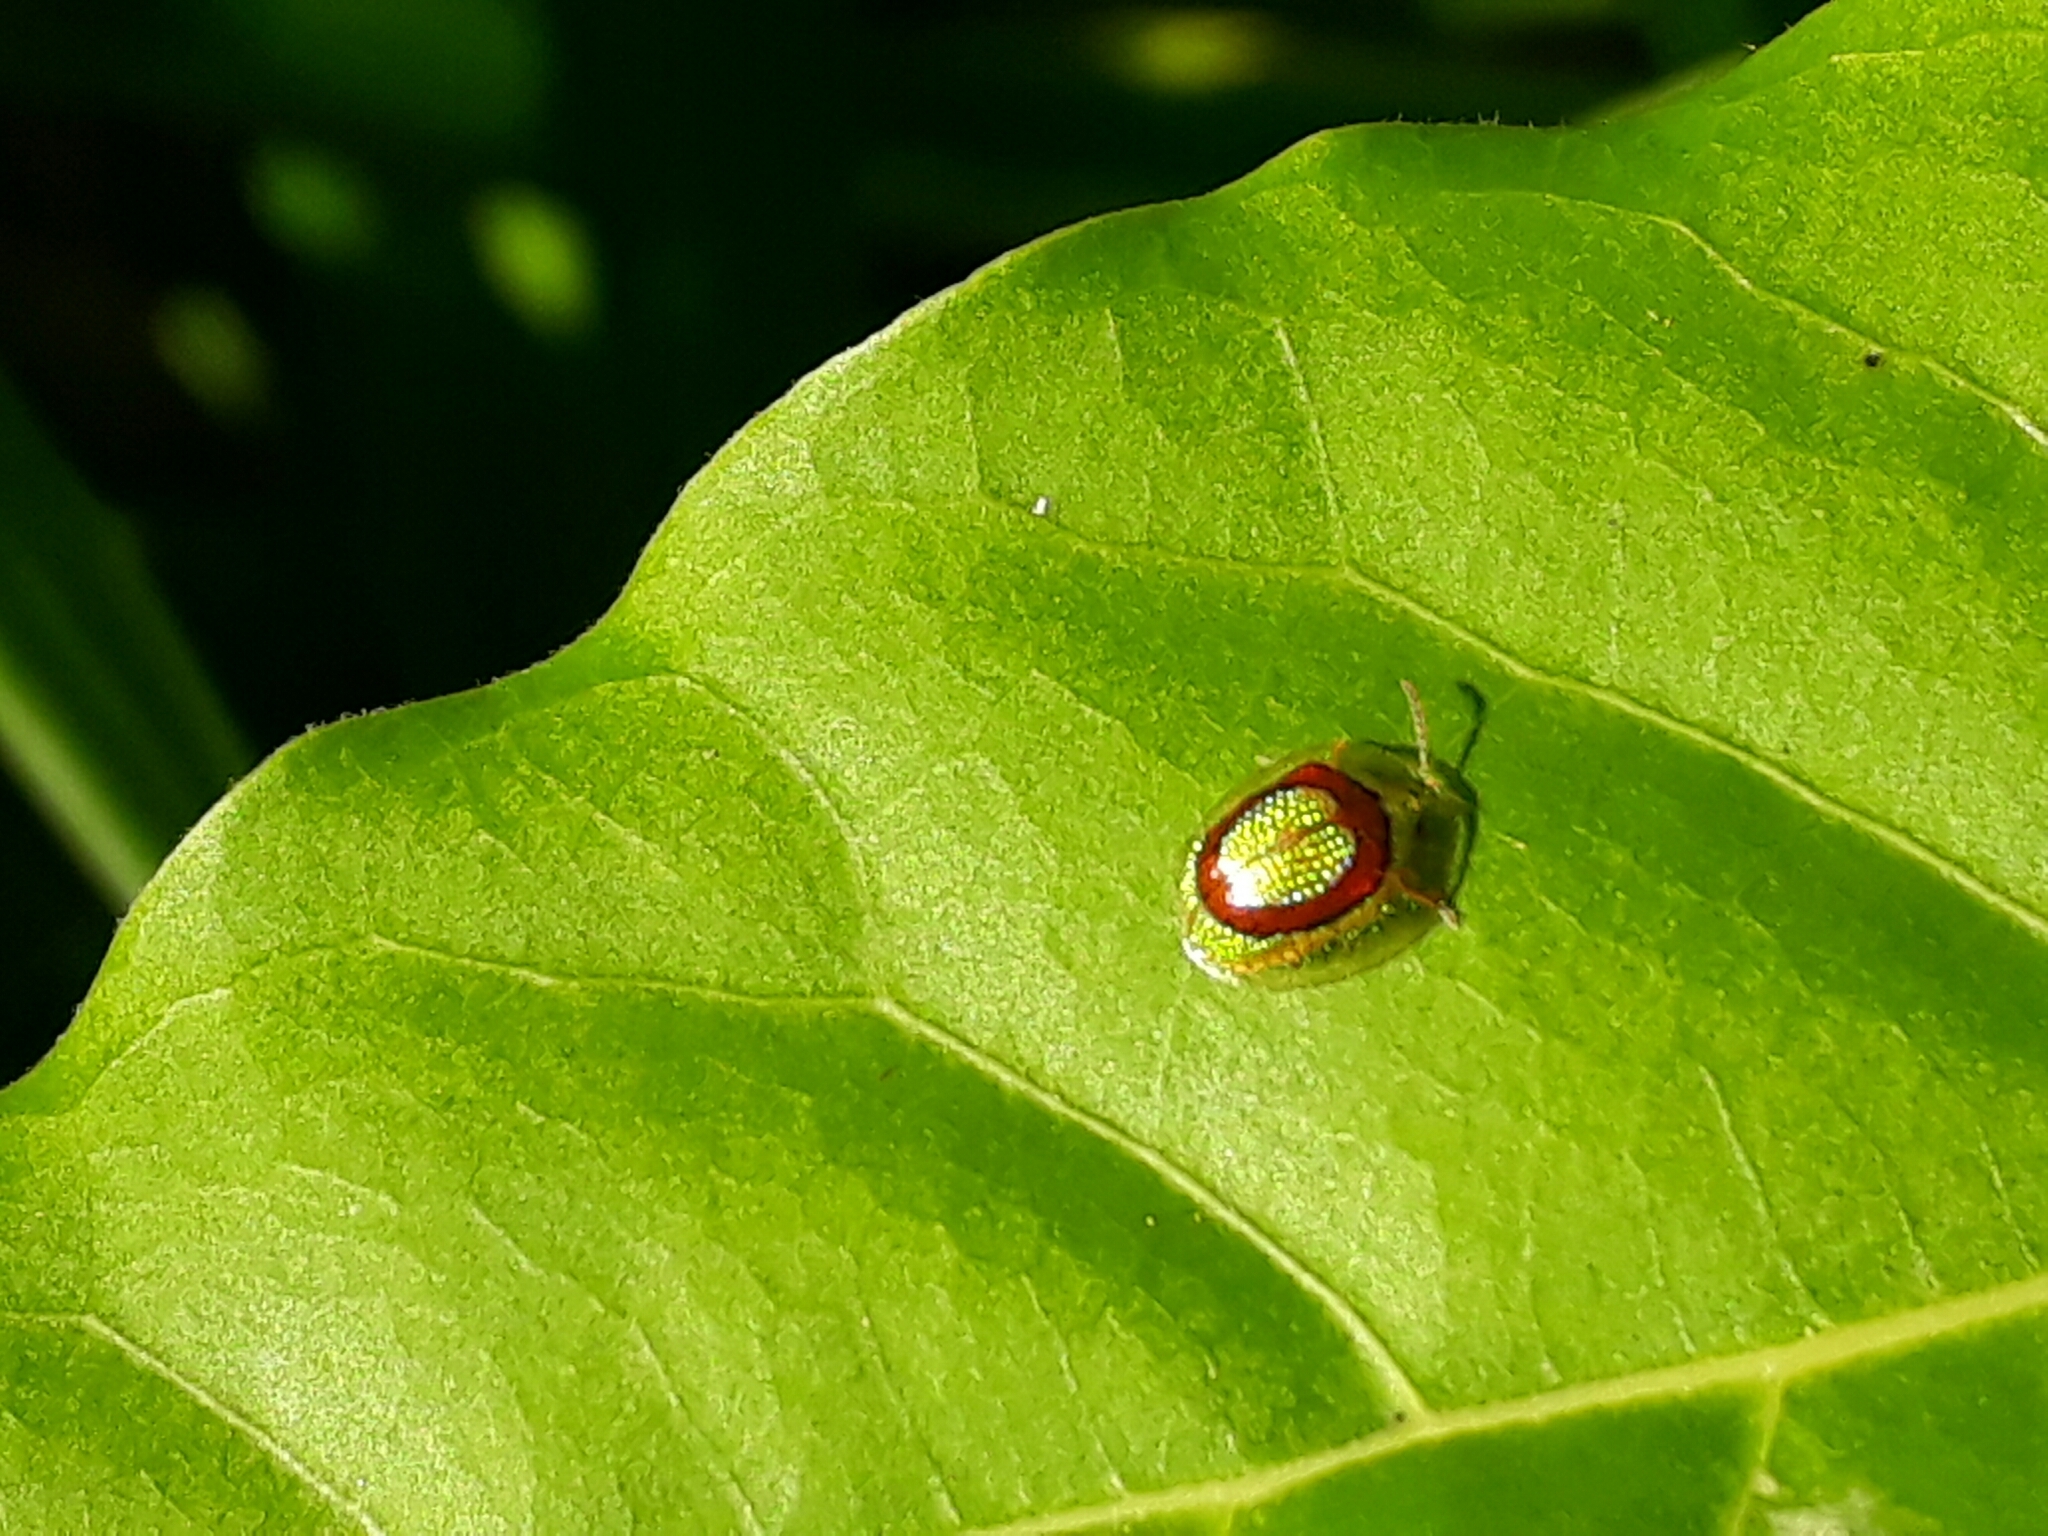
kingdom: Animalia
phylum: Arthropoda
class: Insecta
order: Coleoptera
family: Chrysomelidae
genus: Charidotis
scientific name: Charidotis abrupta
